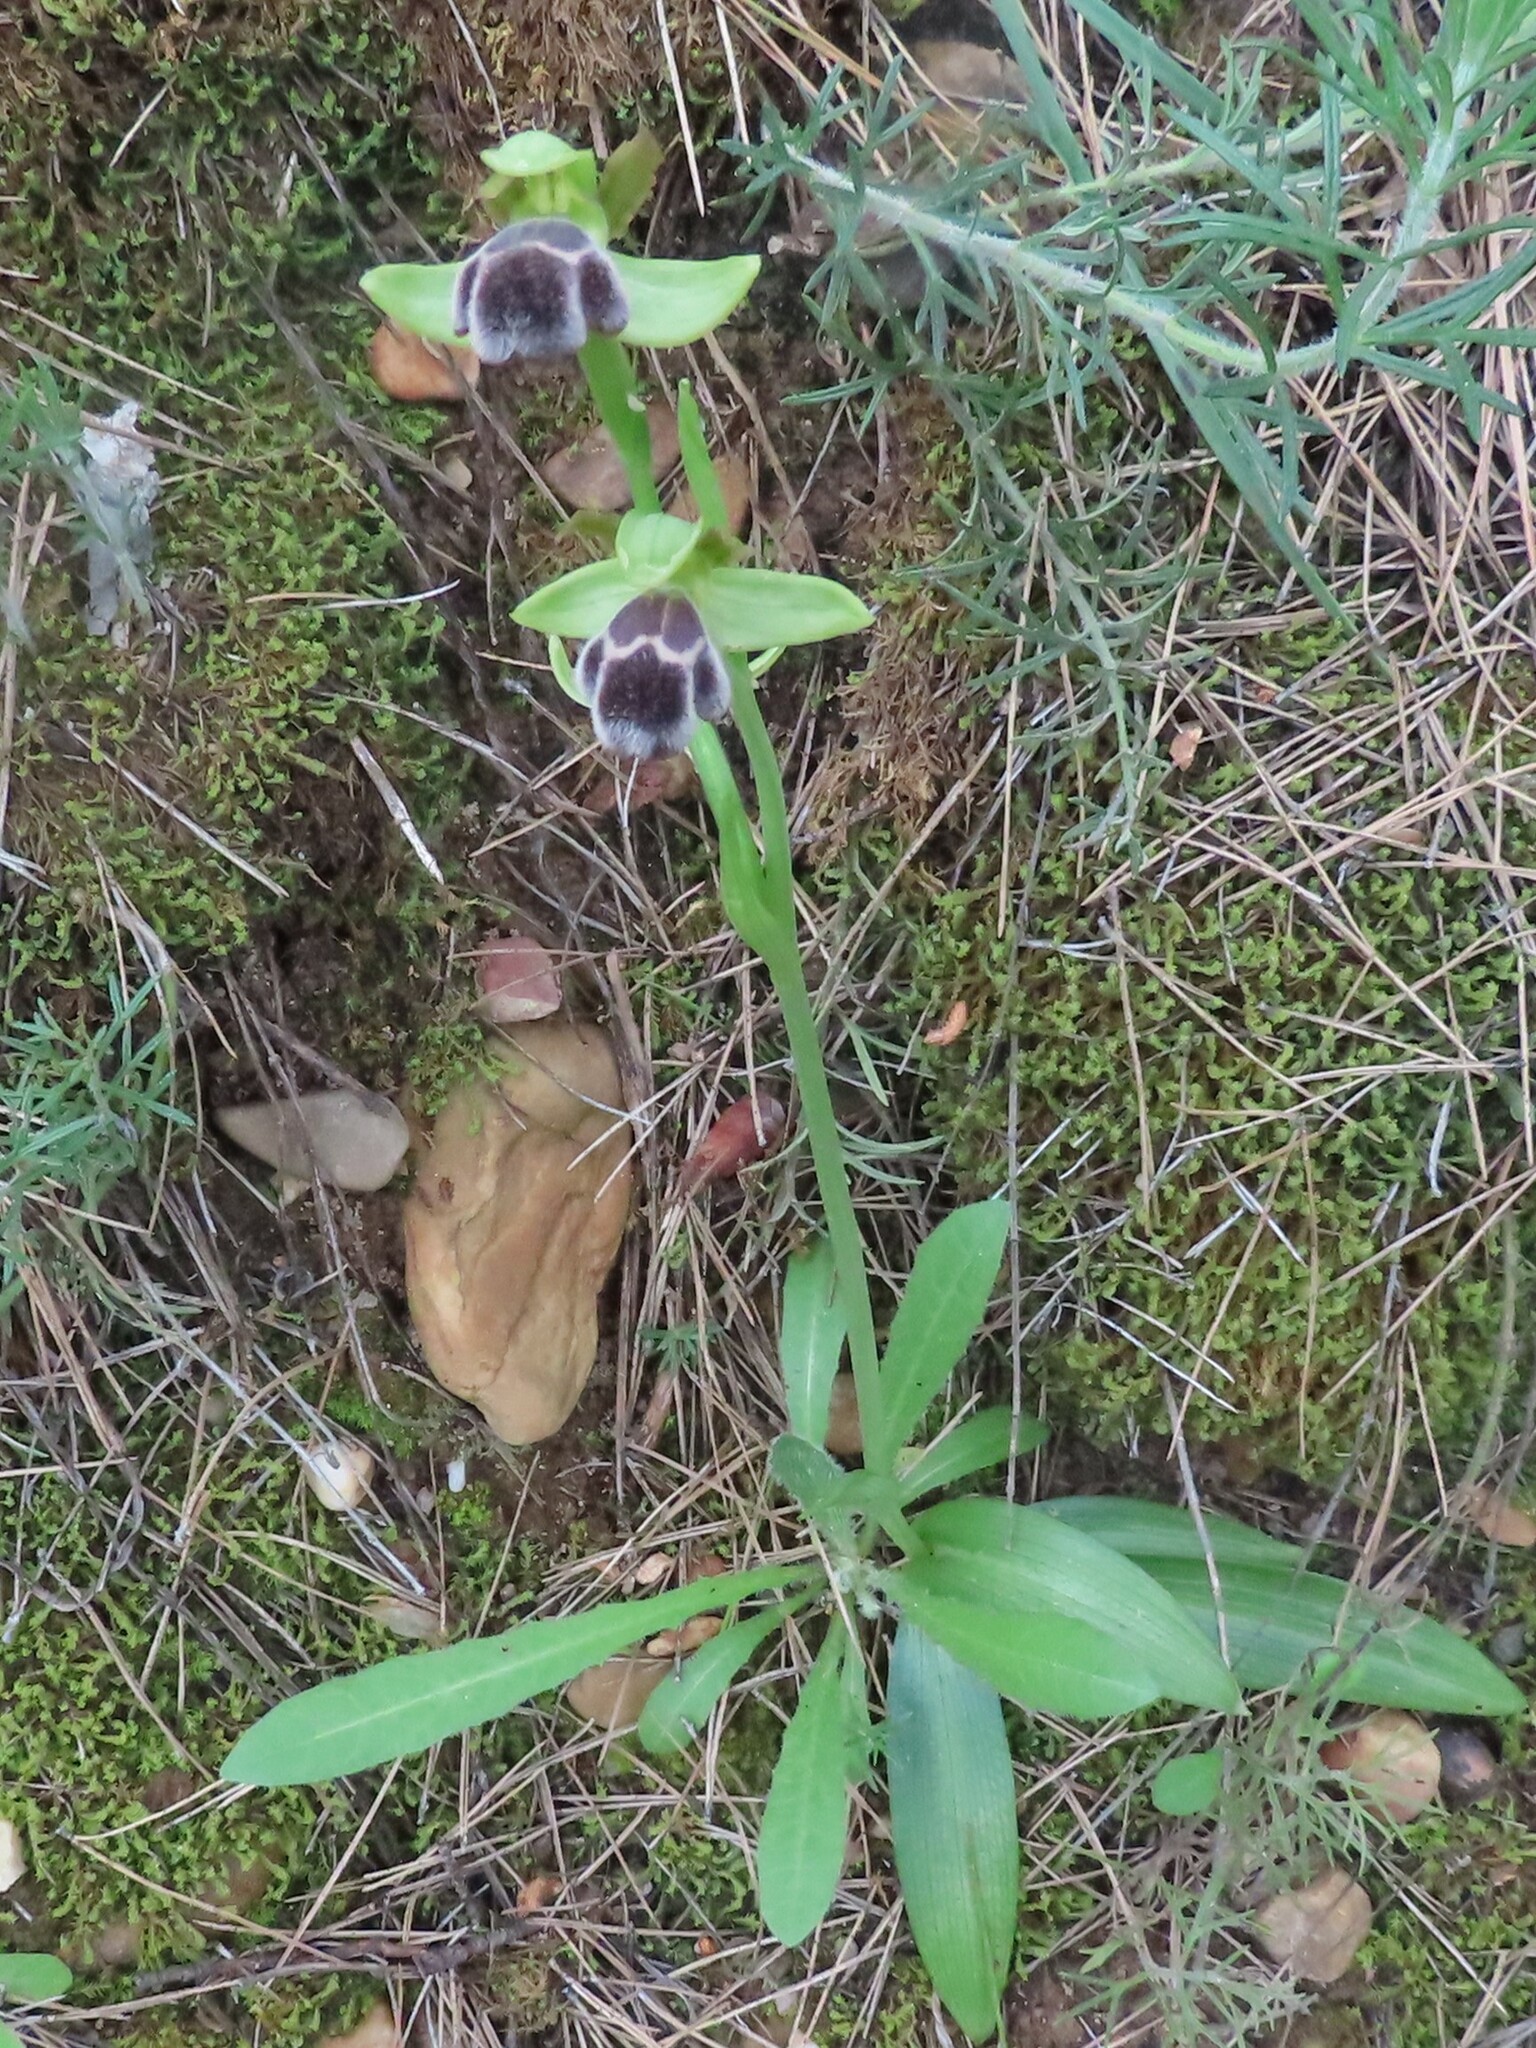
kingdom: Plantae
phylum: Tracheophyta
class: Liliopsida
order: Asparagales
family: Orchidaceae
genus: Ophrys
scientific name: Ophrys omegaifera
